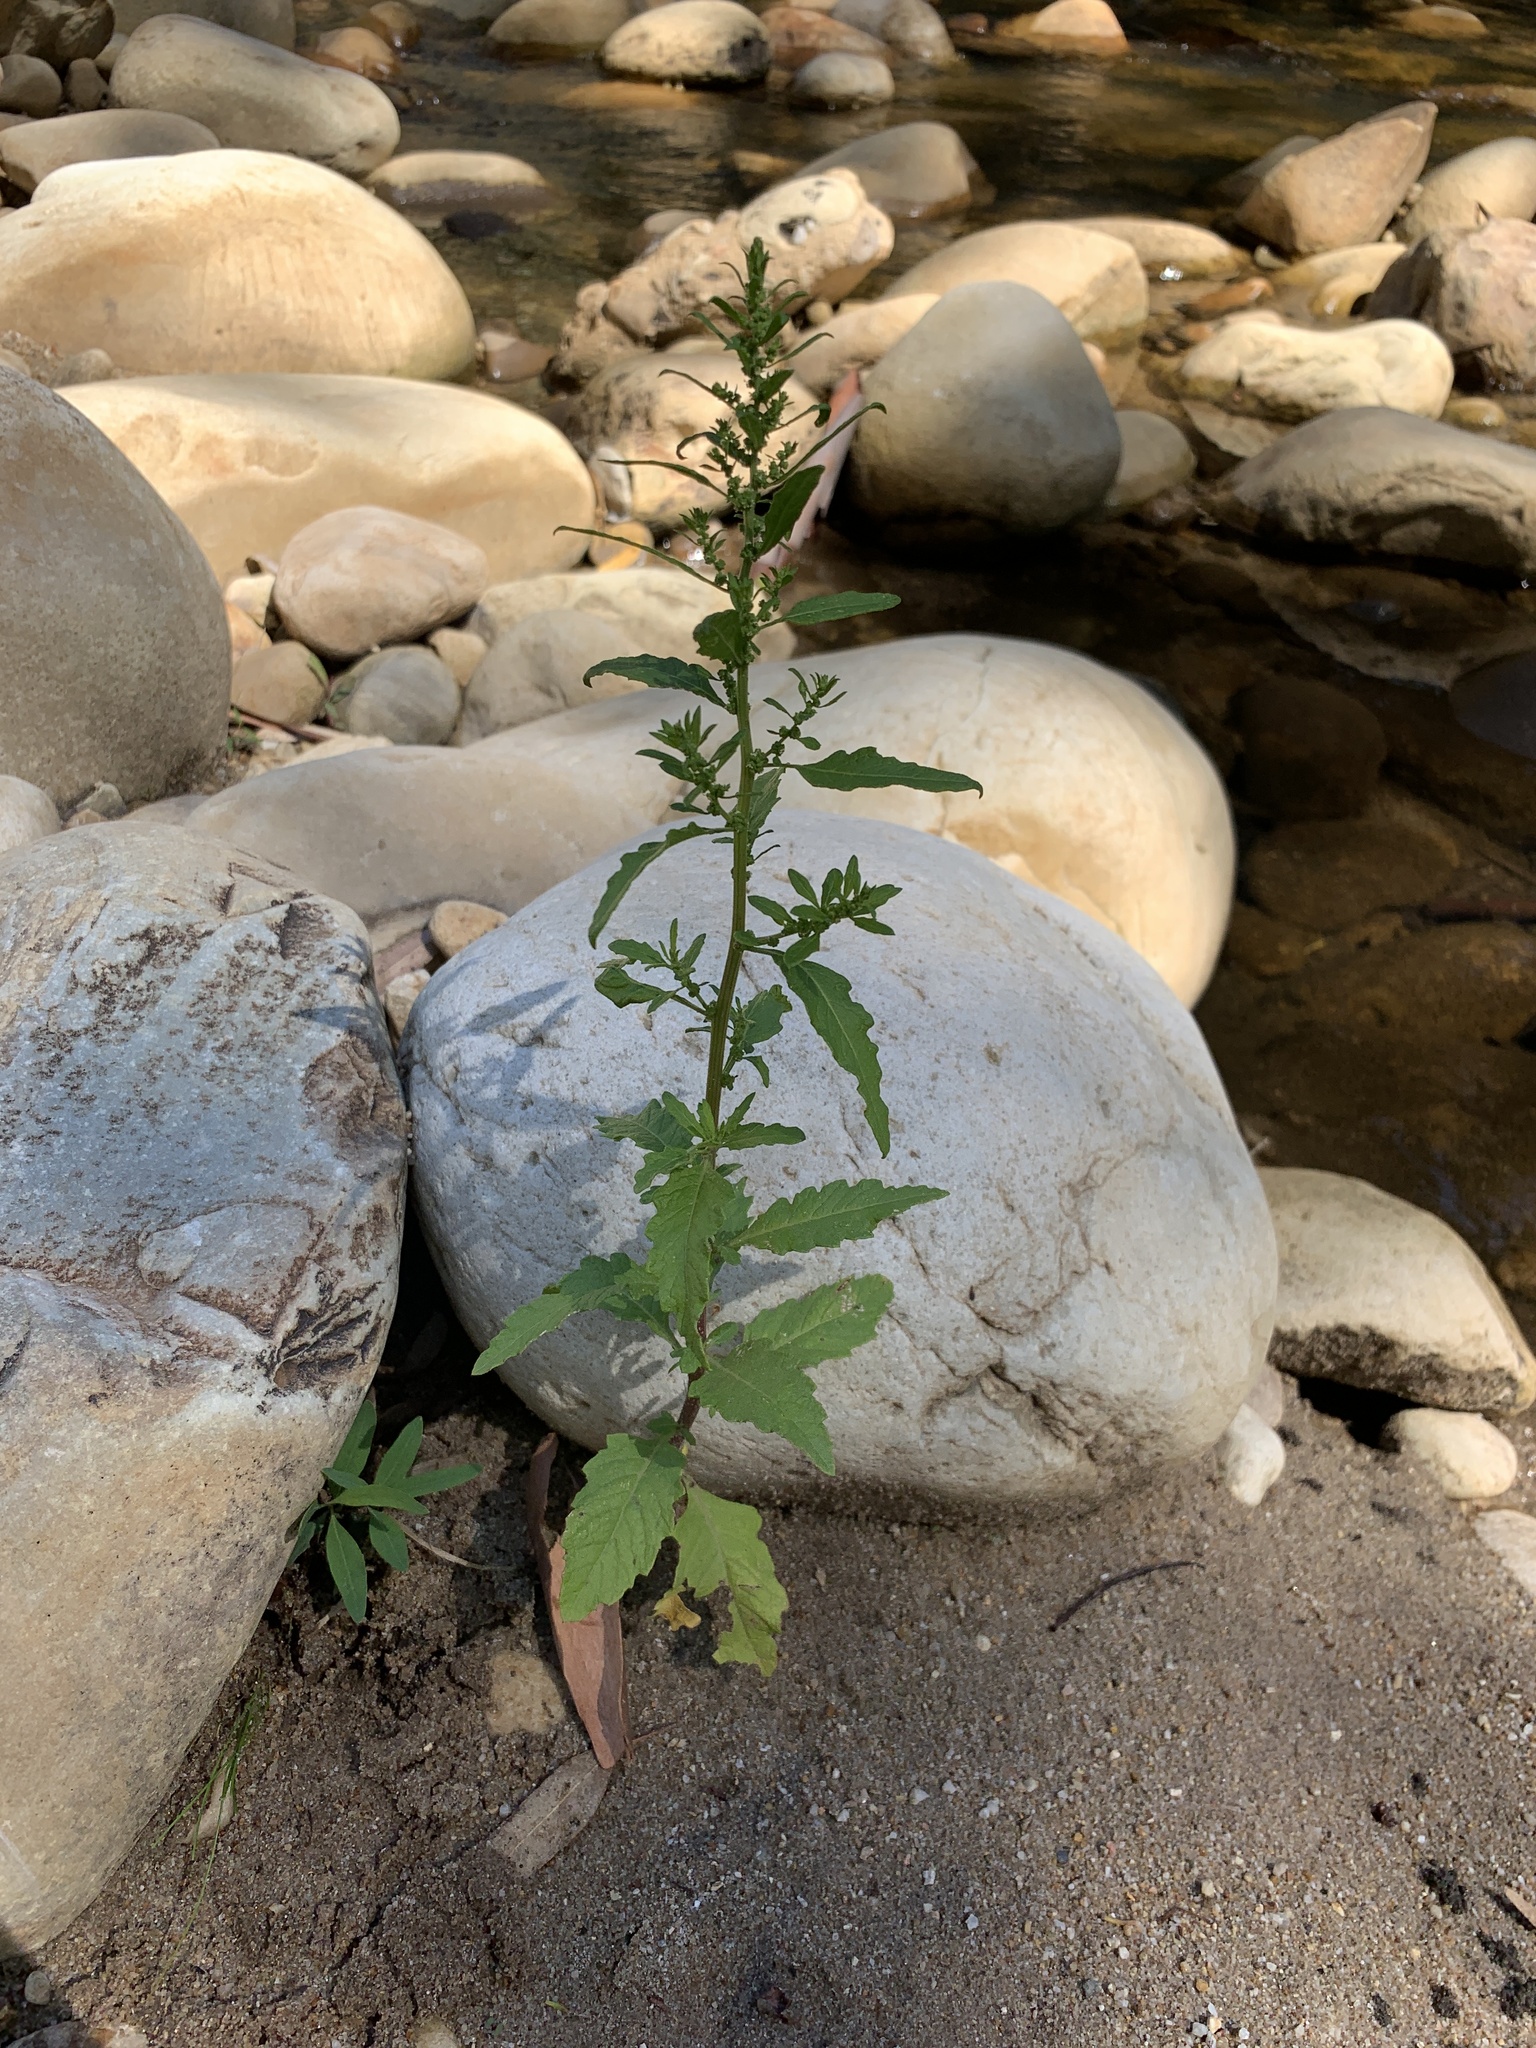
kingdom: Plantae
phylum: Tracheophyta
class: Magnoliopsida
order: Caryophyllales
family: Amaranthaceae
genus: Dysphania
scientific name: Dysphania ambrosioides
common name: Wormseed
